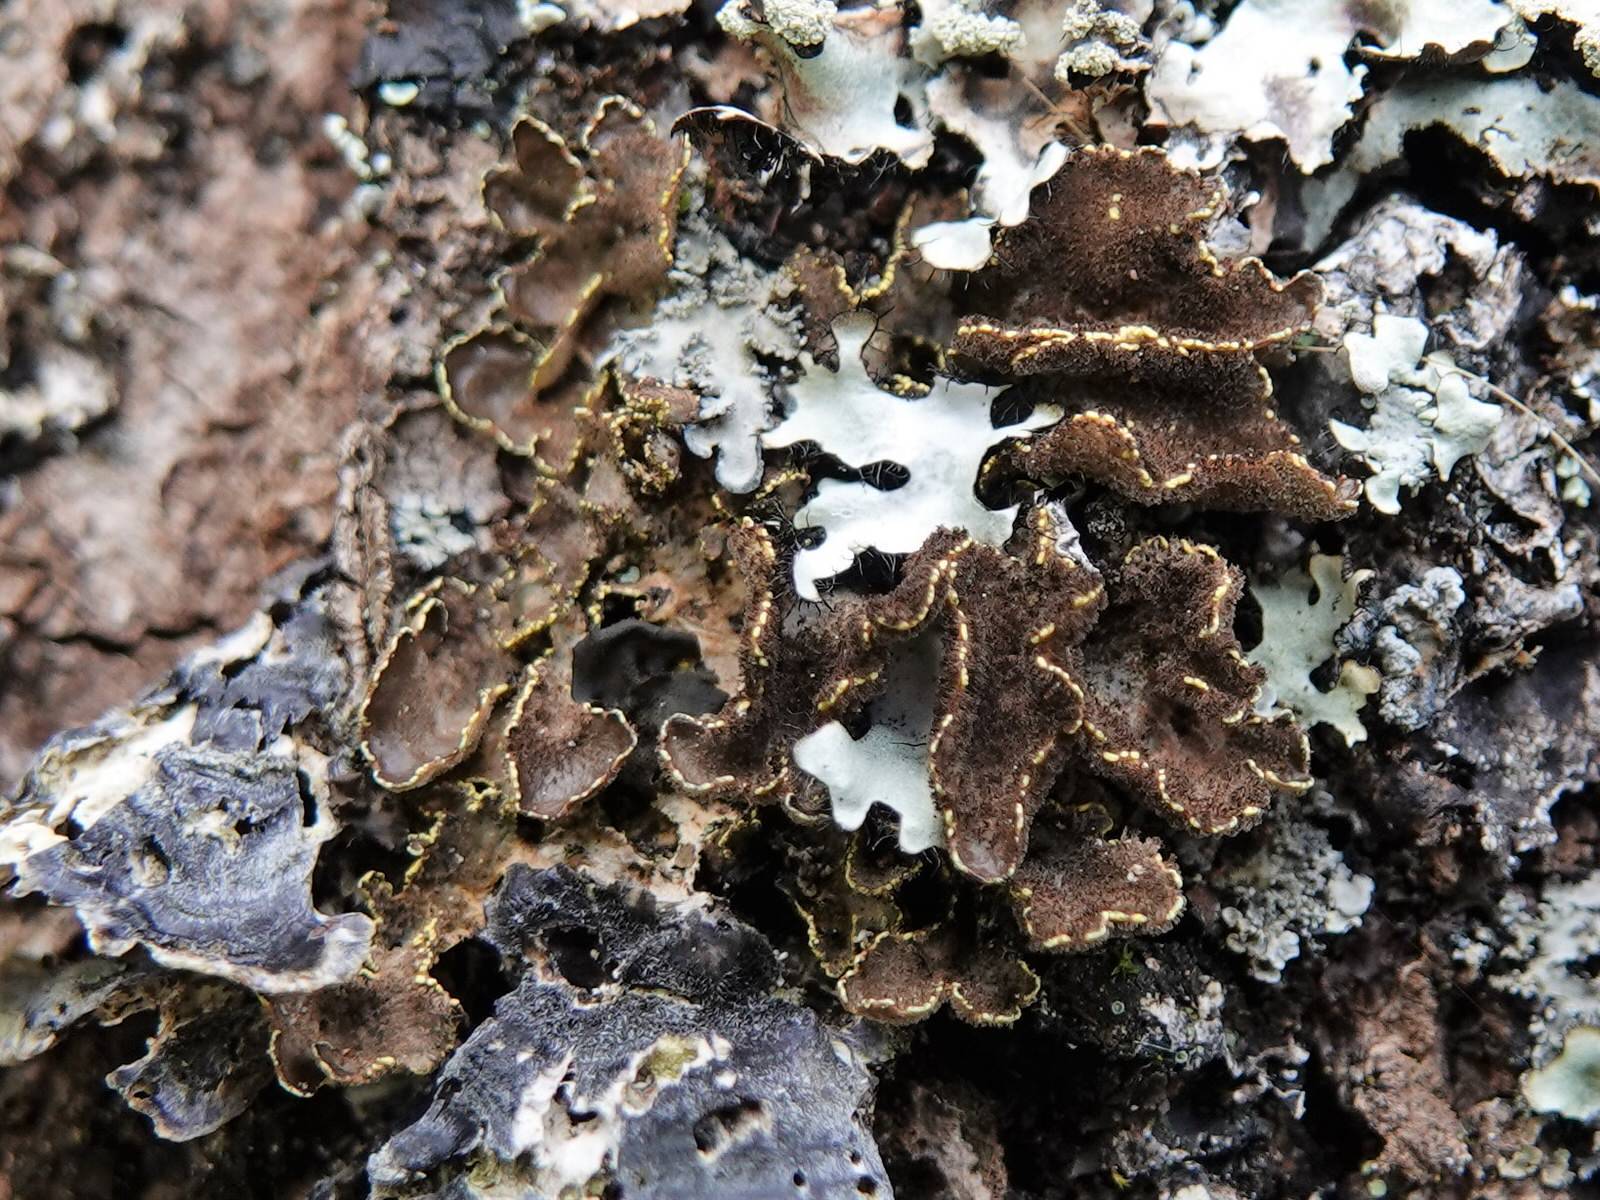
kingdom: Fungi
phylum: Ascomycota
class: Lecanoromycetes
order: Peltigerales
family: Lobariaceae
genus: Pseudocyphellaria
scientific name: Pseudocyphellaria crocata
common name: Golden specklebelly
